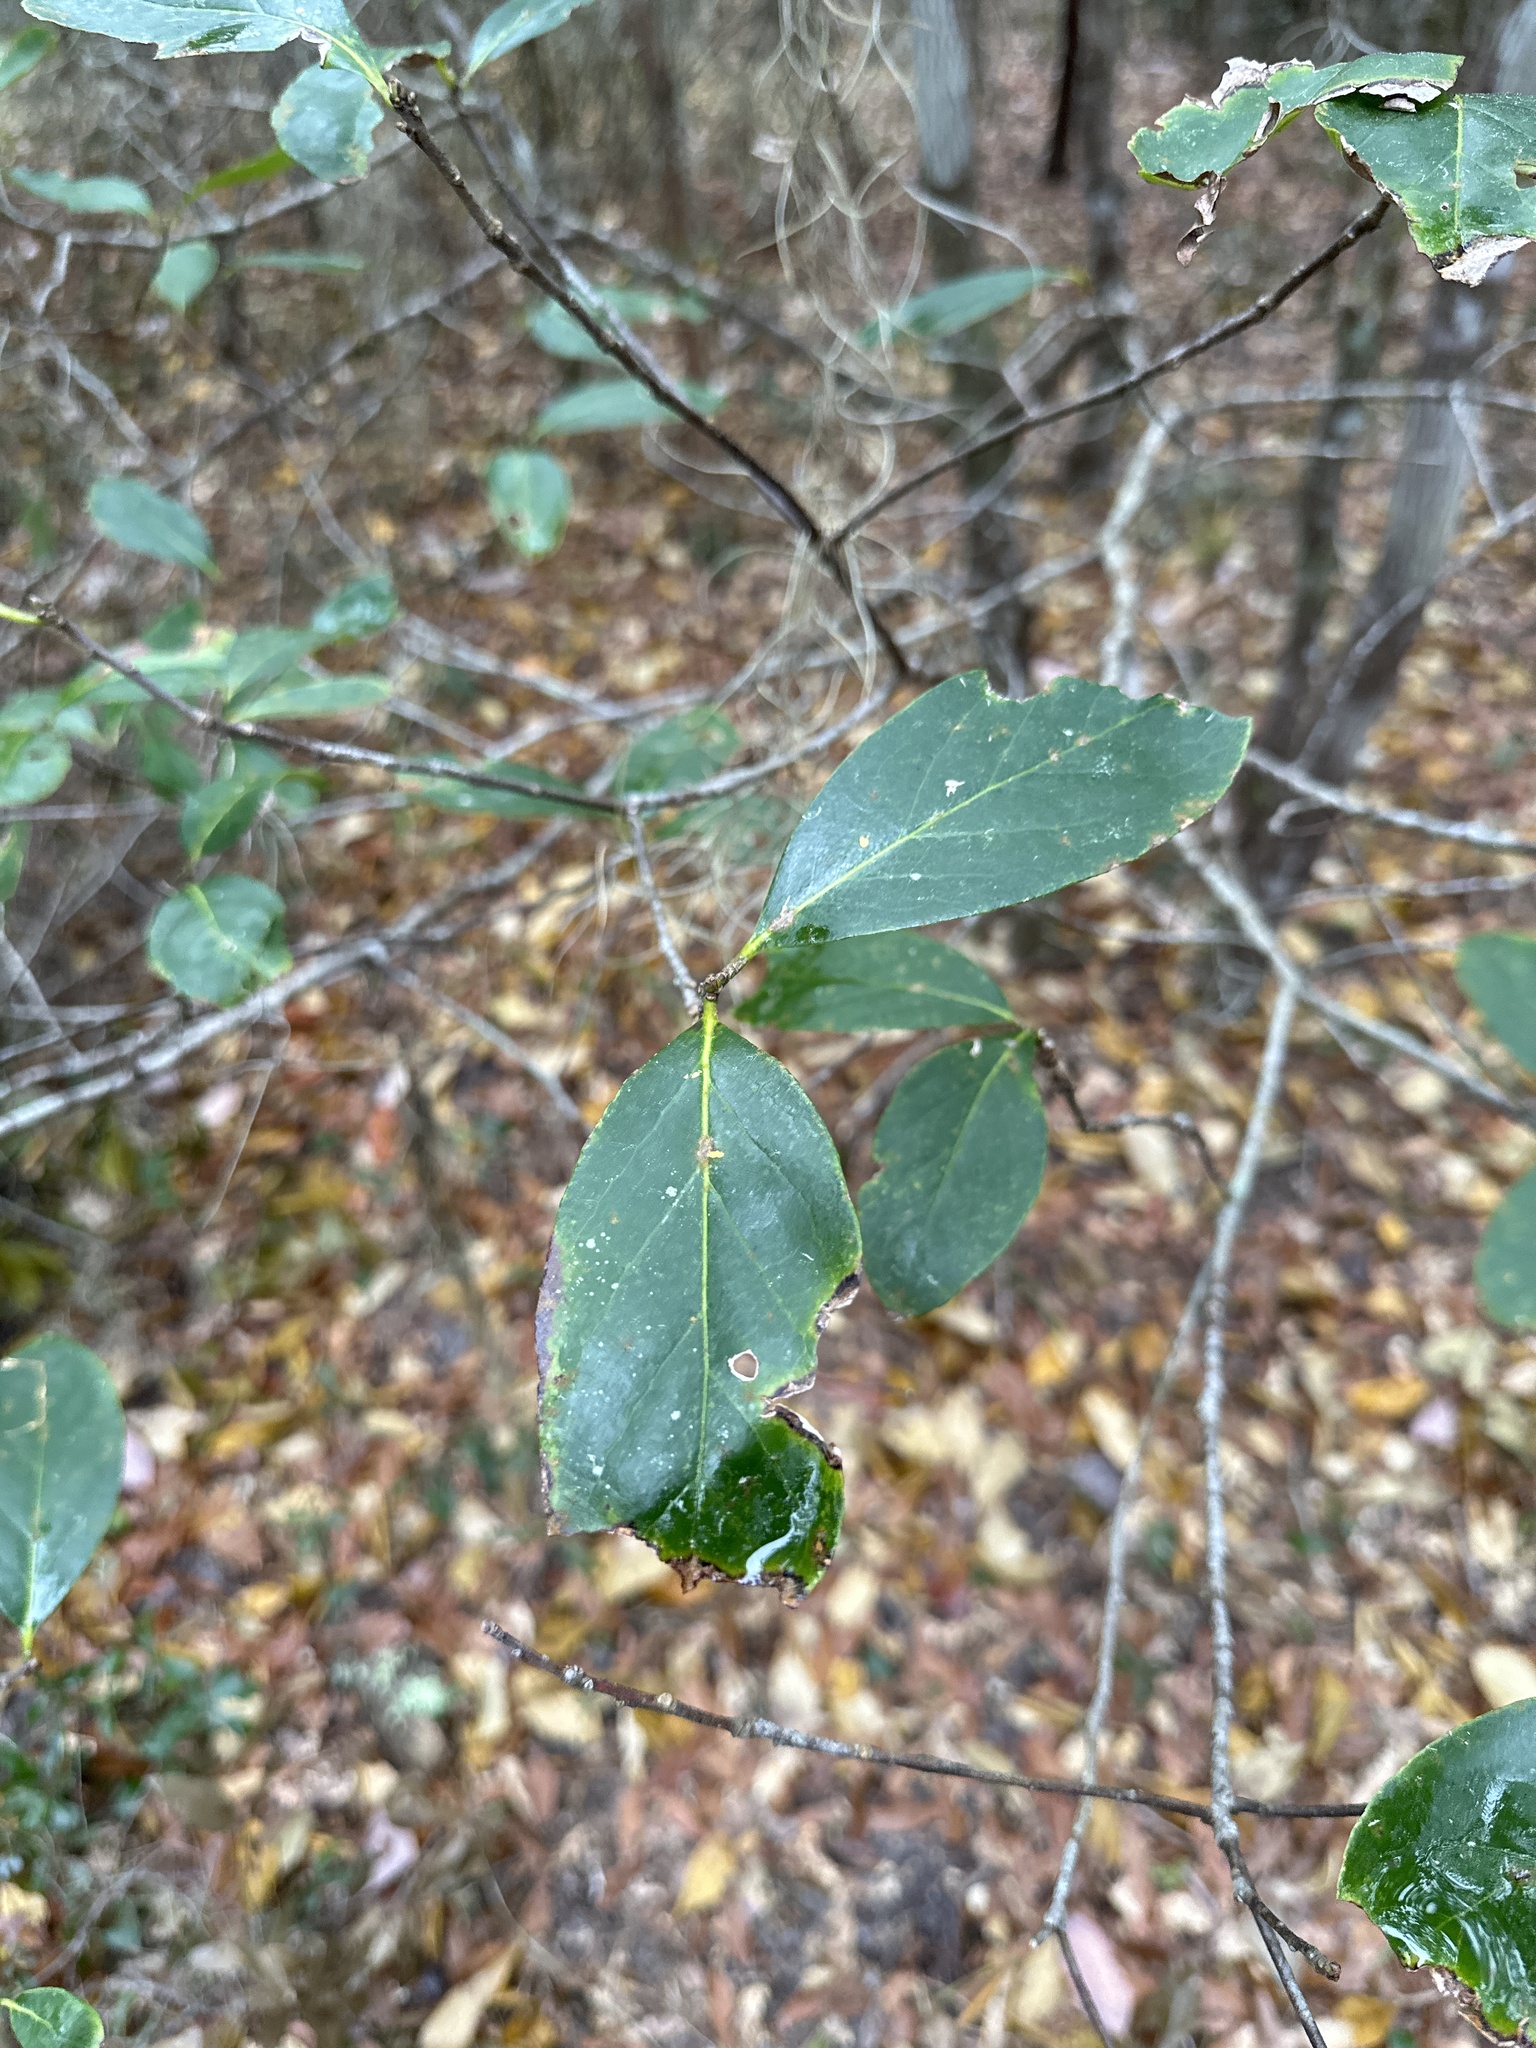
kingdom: Plantae
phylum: Tracheophyta
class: Magnoliopsida
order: Ericales
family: Symplocaceae
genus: Symplocos
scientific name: Symplocos tinctoria
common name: Horse-sugar
